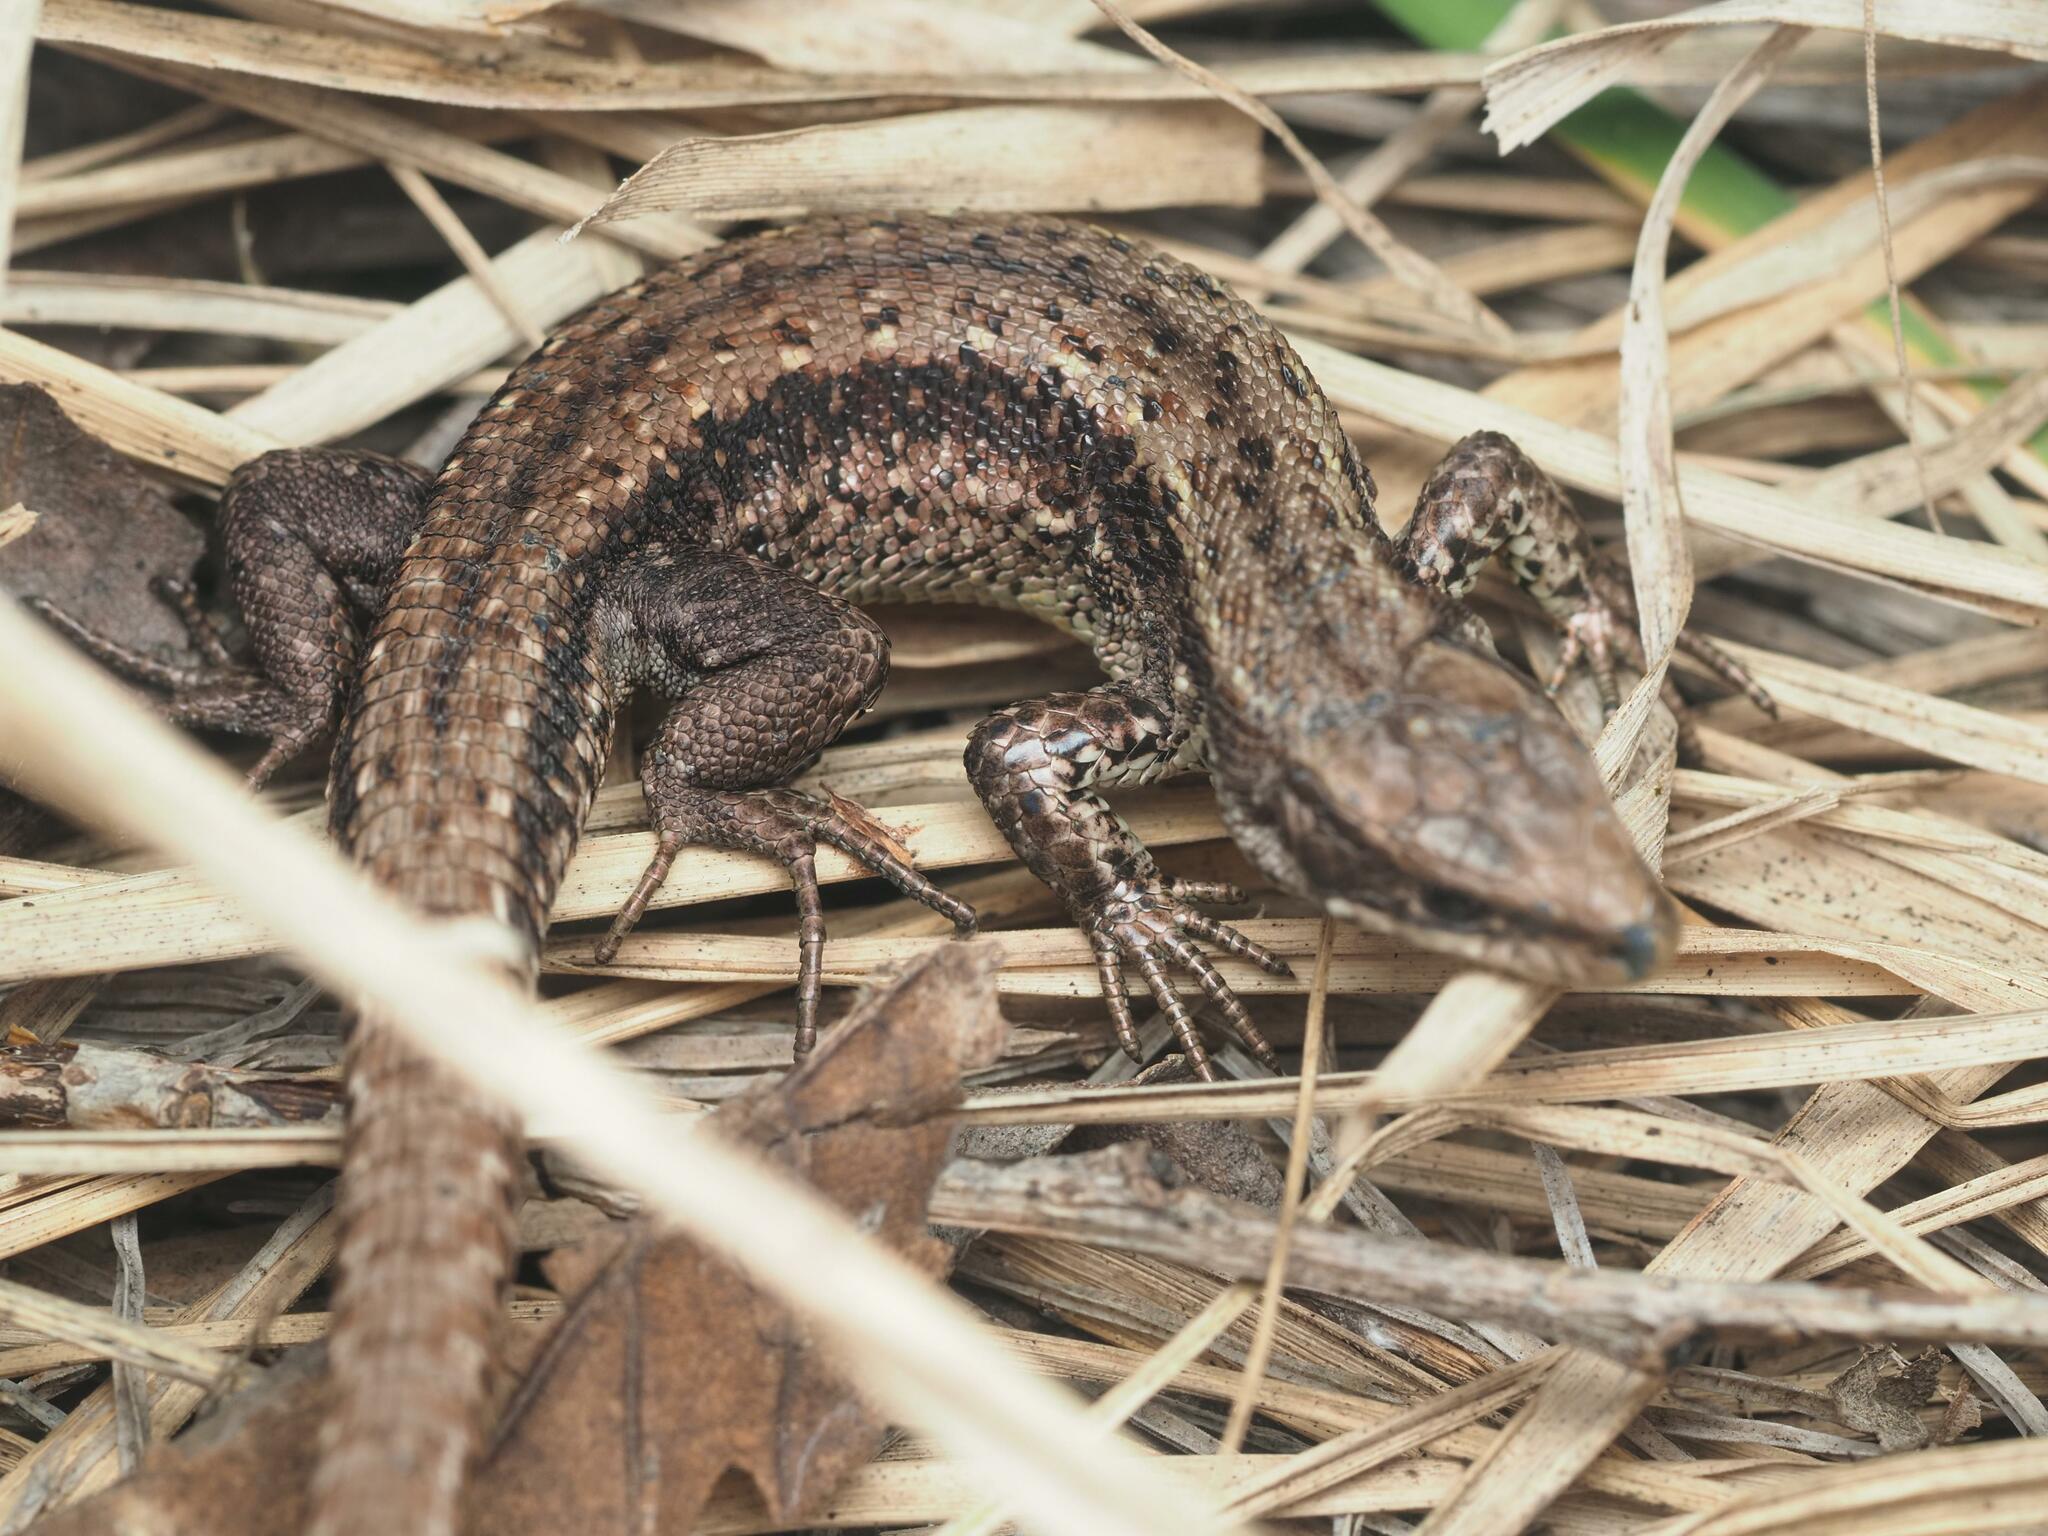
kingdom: Animalia
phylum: Chordata
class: Squamata
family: Lacertidae
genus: Zootoca
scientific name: Zootoca vivipara
